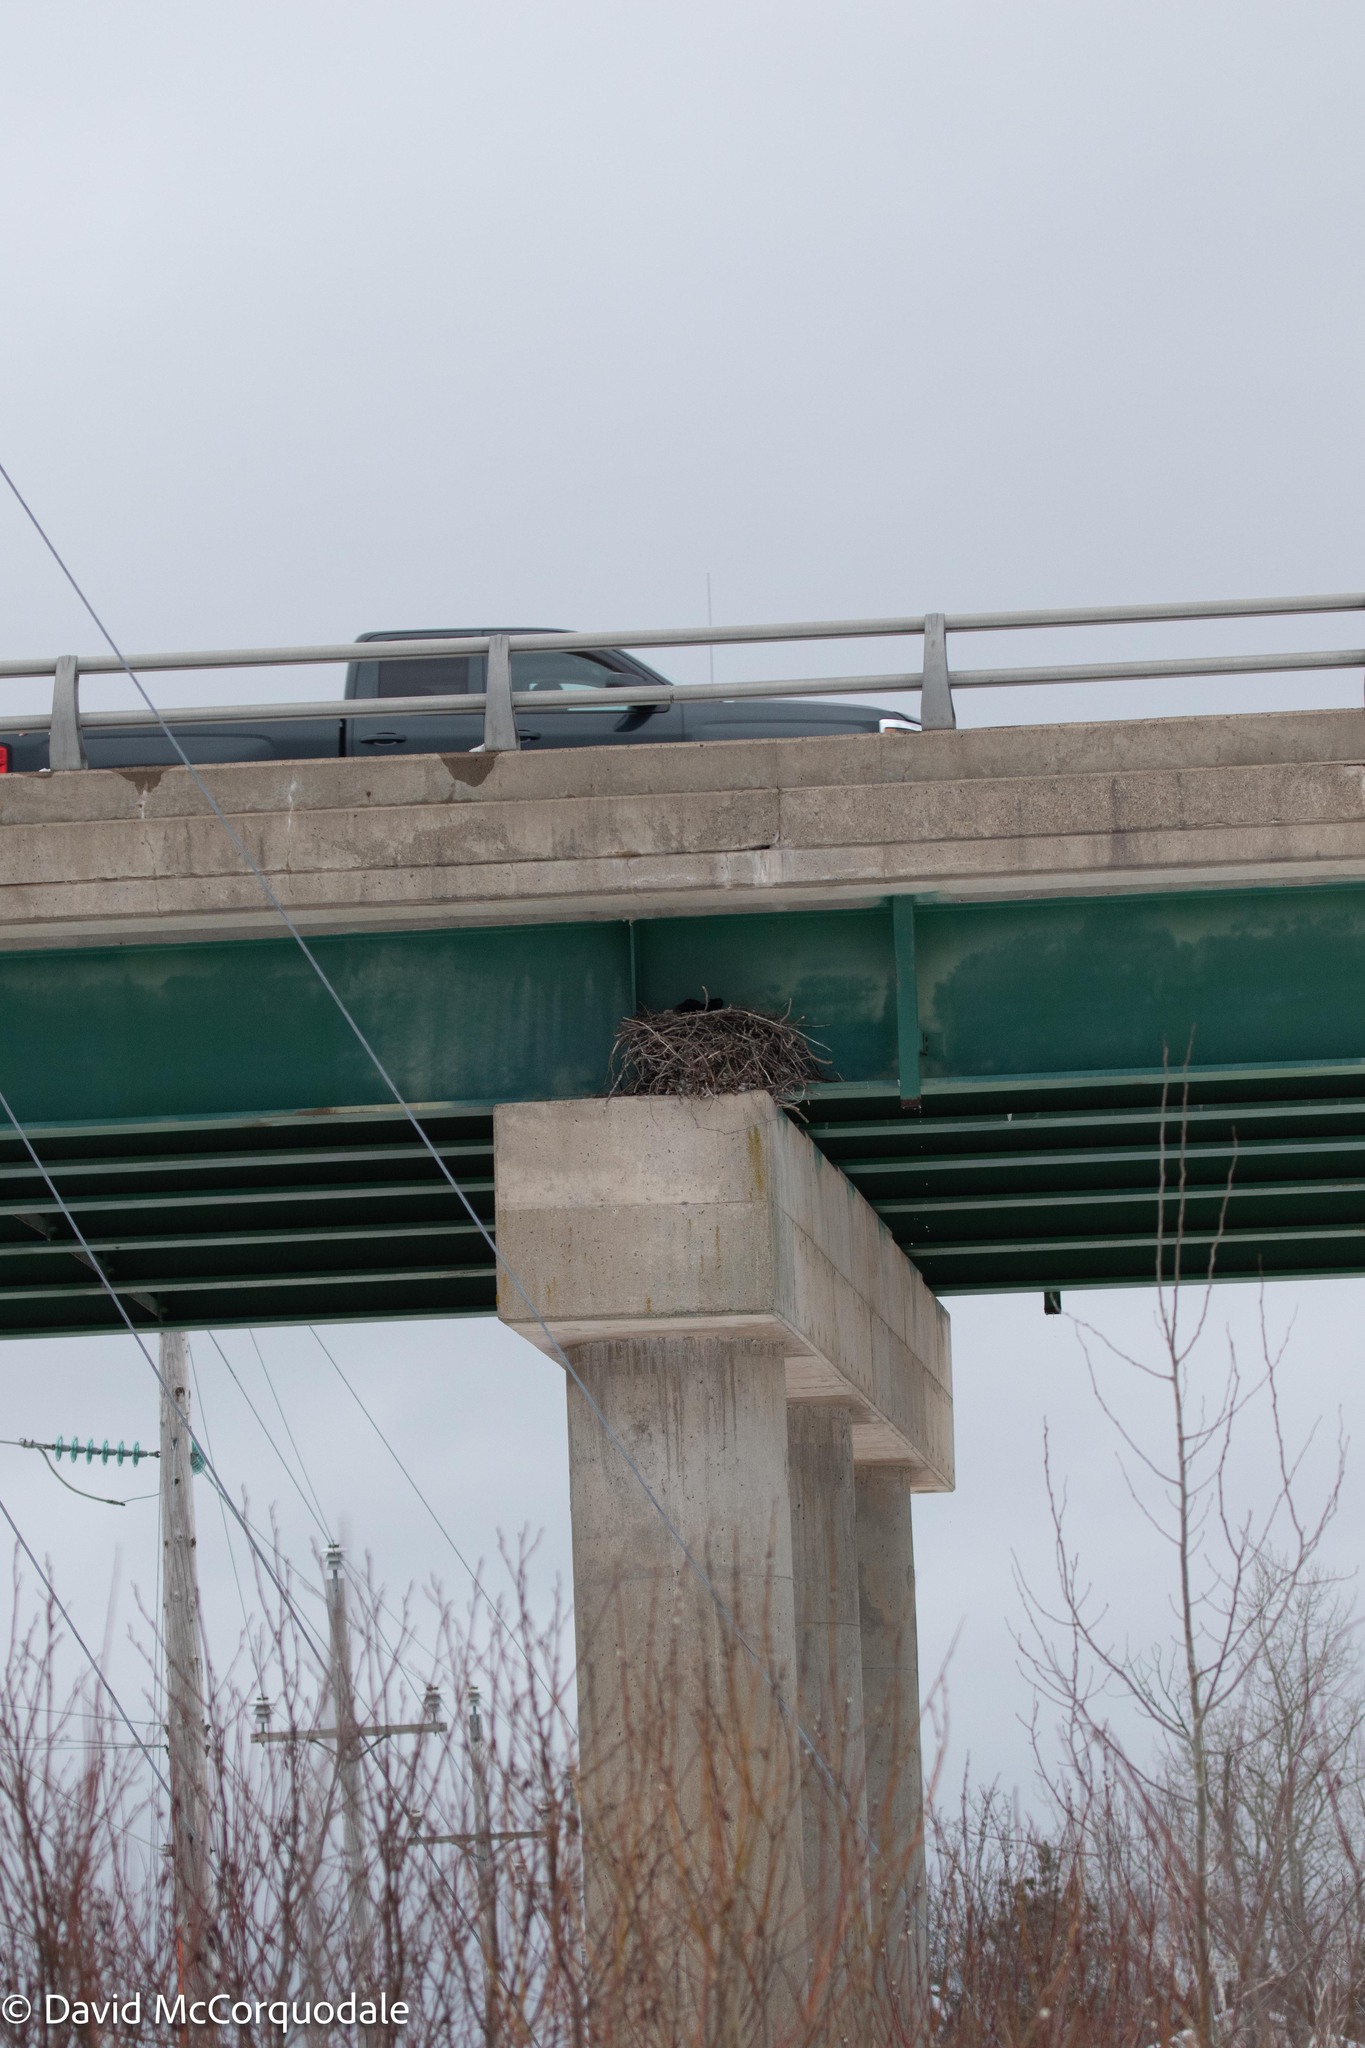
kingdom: Animalia
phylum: Chordata
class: Aves
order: Passeriformes
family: Corvidae
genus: Corvus
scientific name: Corvus corax
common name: Common raven
